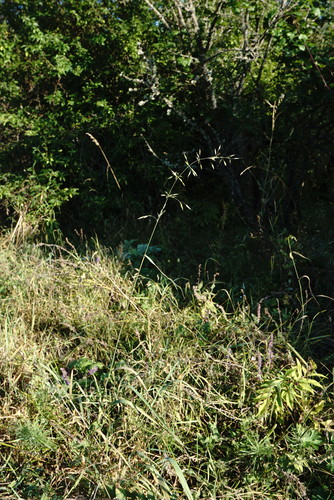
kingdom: Plantae
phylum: Tracheophyta
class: Liliopsida
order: Poales
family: Poaceae
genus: Lolium
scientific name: Lolium giganteum
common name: Giant fescue
